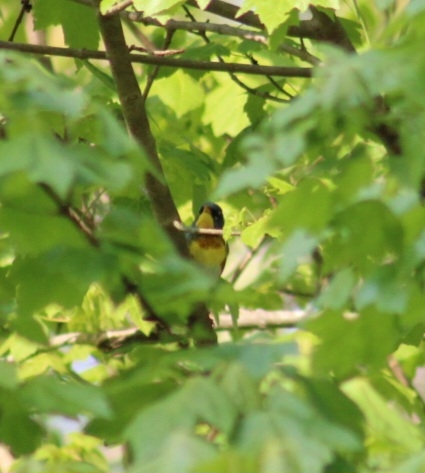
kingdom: Animalia
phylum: Chordata
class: Aves
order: Passeriformes
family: Parulidae
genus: Setophaga
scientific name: Setophaga americana
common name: Northern parula
